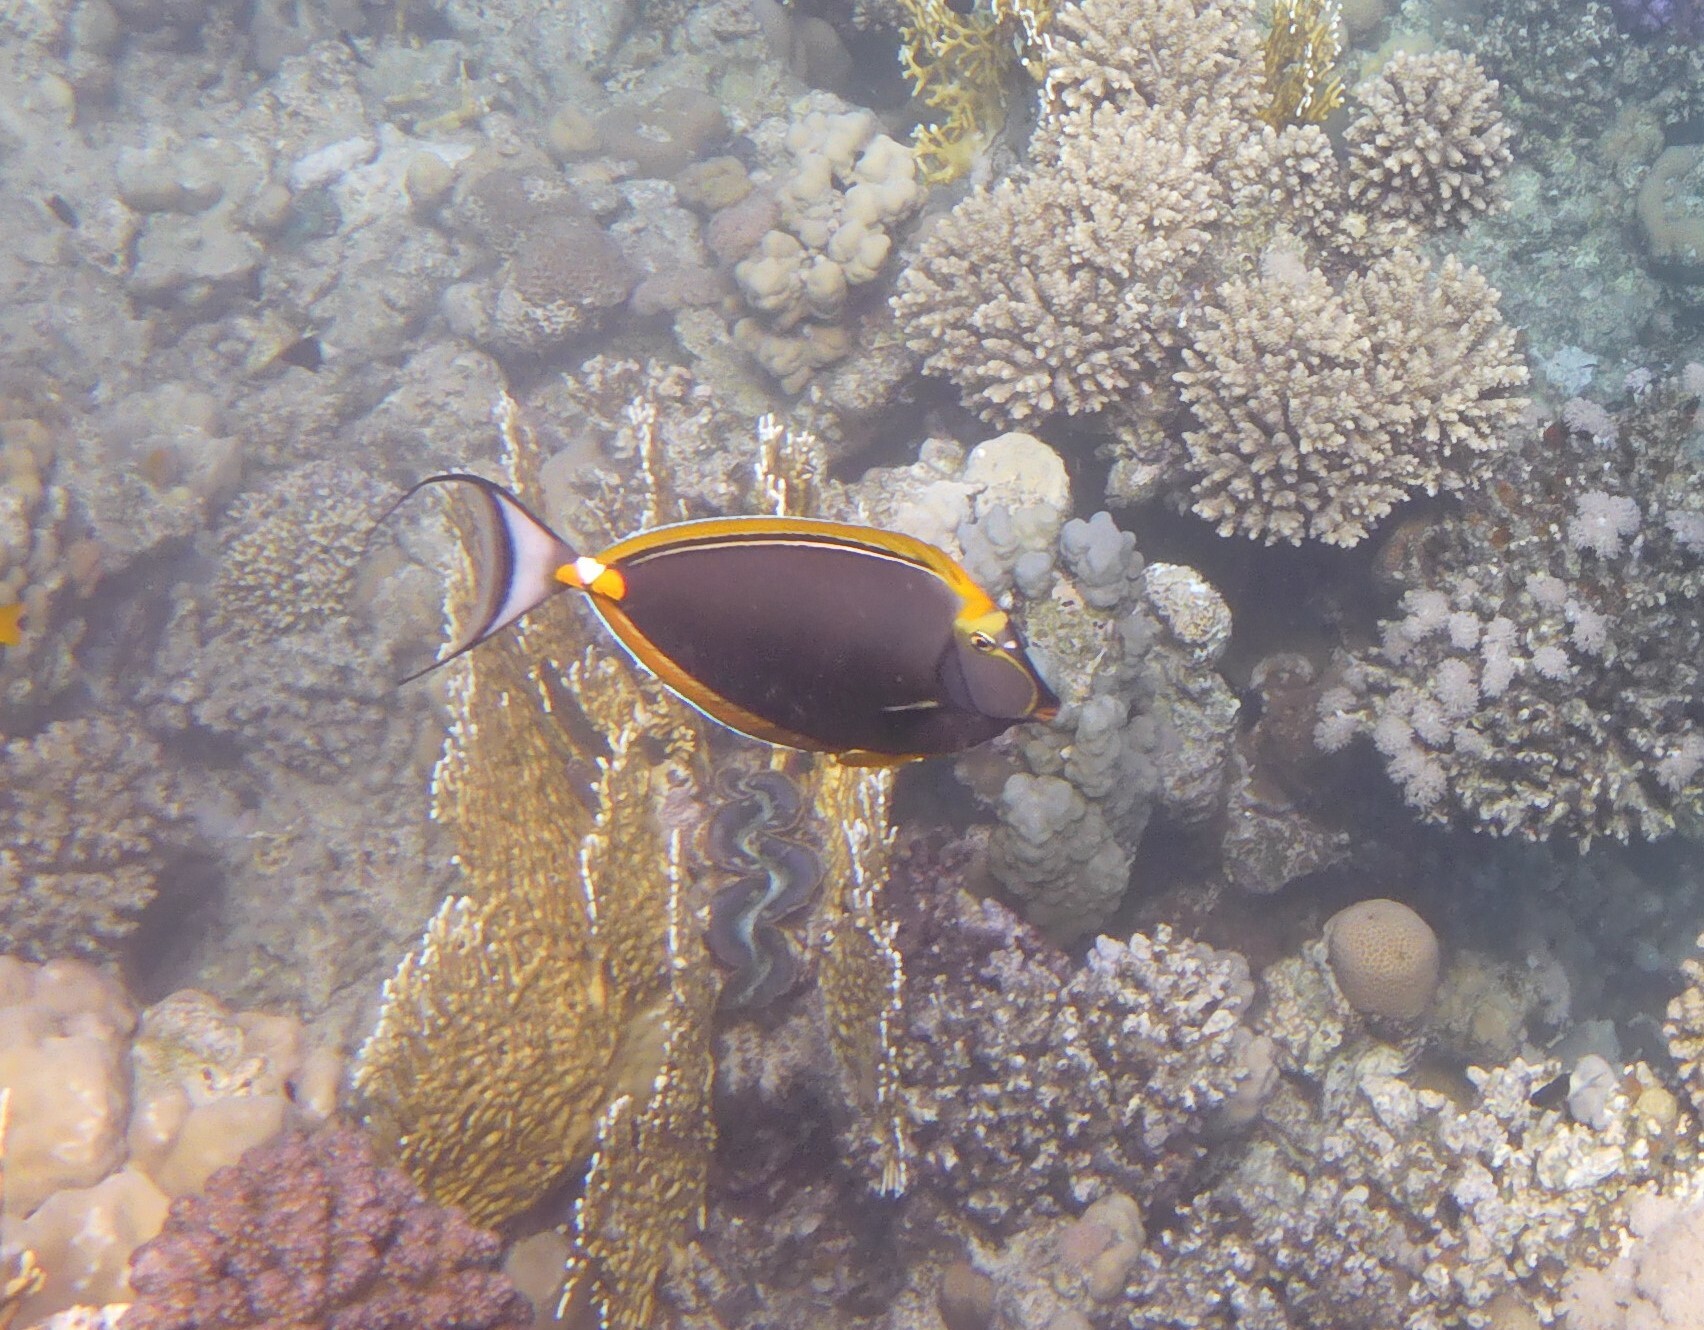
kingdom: Animalia
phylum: Chordata
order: Perciformes
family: Acanthuridae
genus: Naso
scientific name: Naso elegans
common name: Orangespine unicornfish
